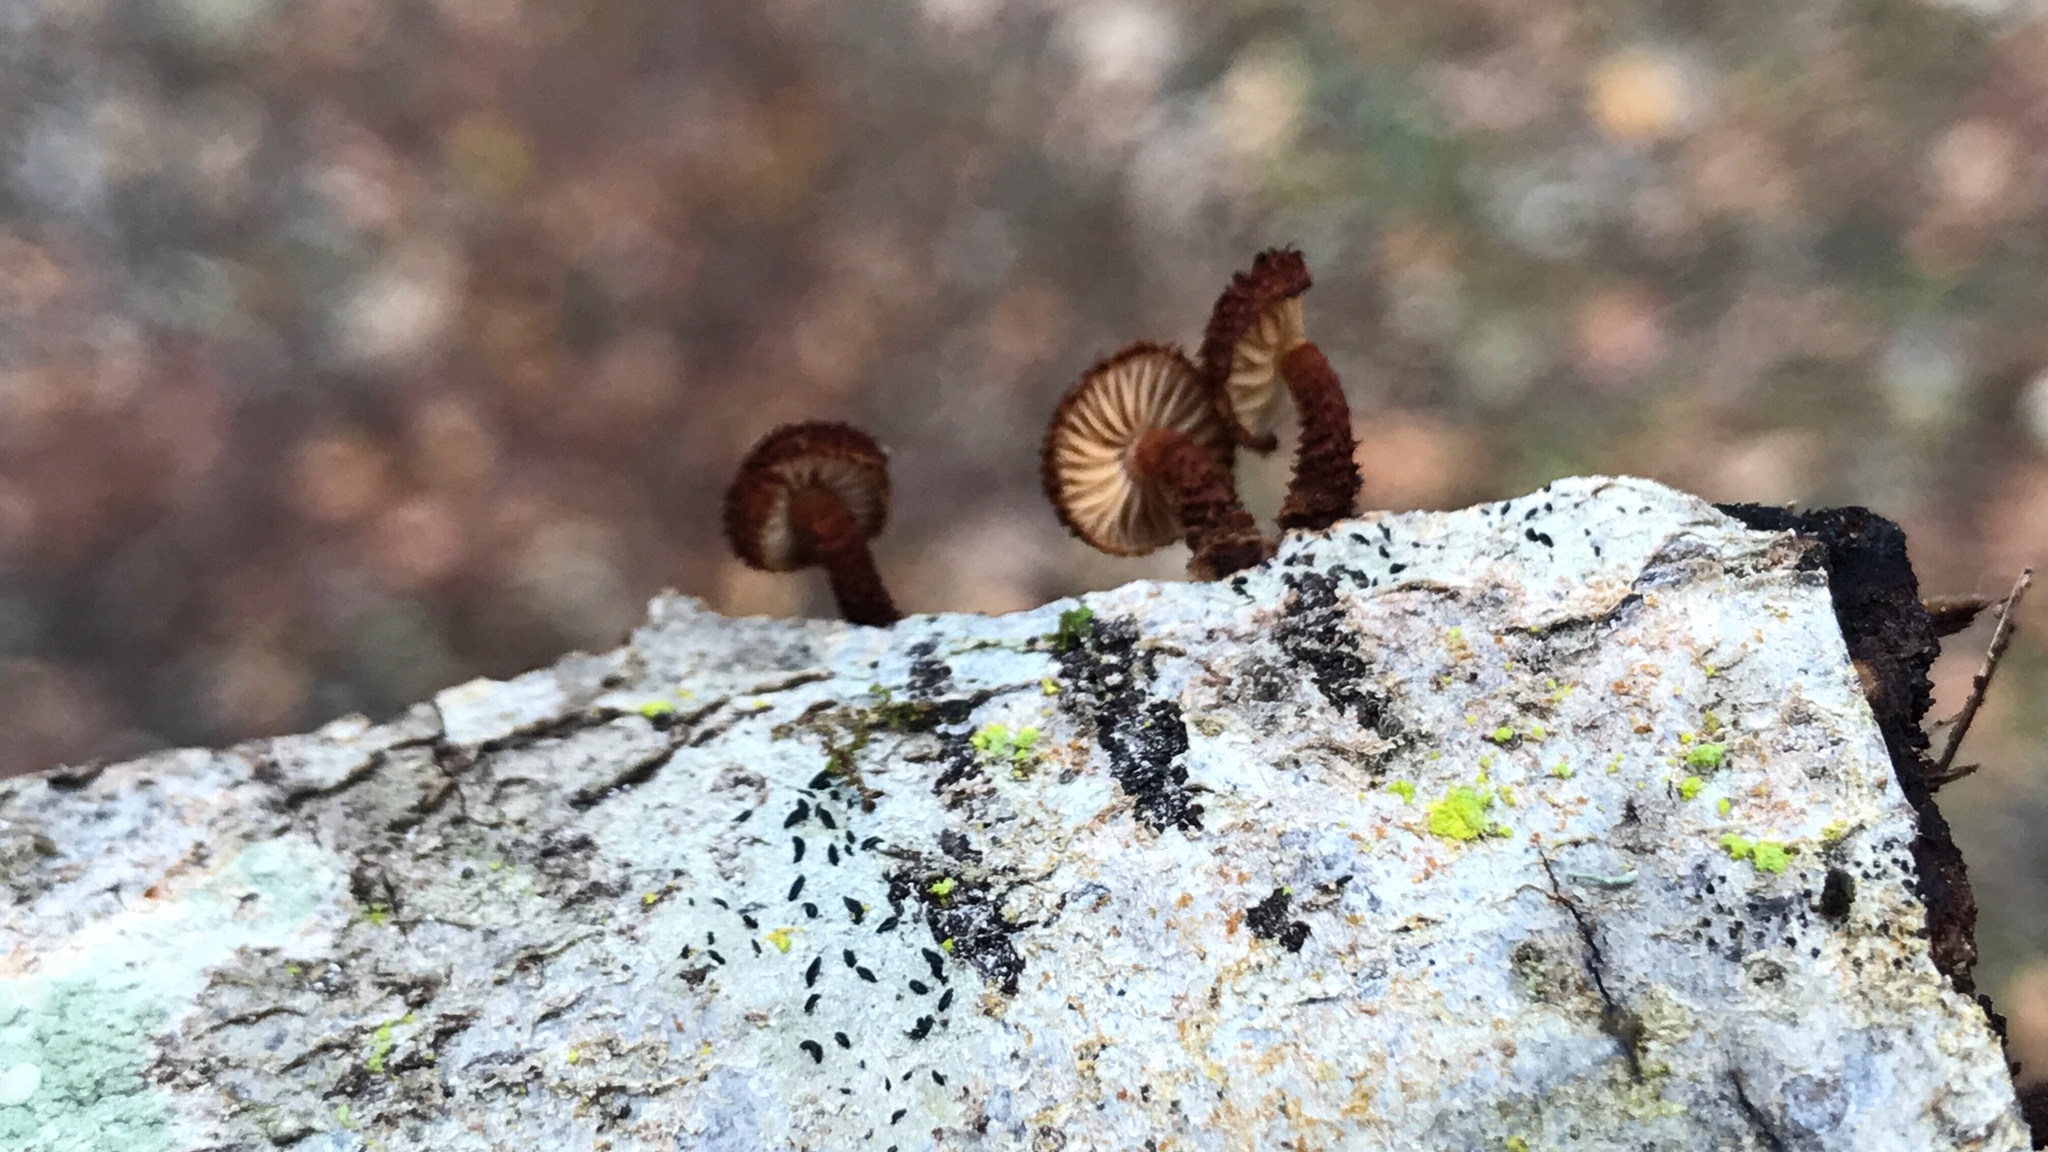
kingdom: Fungi
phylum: Basidiomycota
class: Agaricomycetes
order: Agaricales
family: Tubariaceae
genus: Phaeomarasmius
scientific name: Phaeomarasmius erinaceus
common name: Hedgehog scalycap
